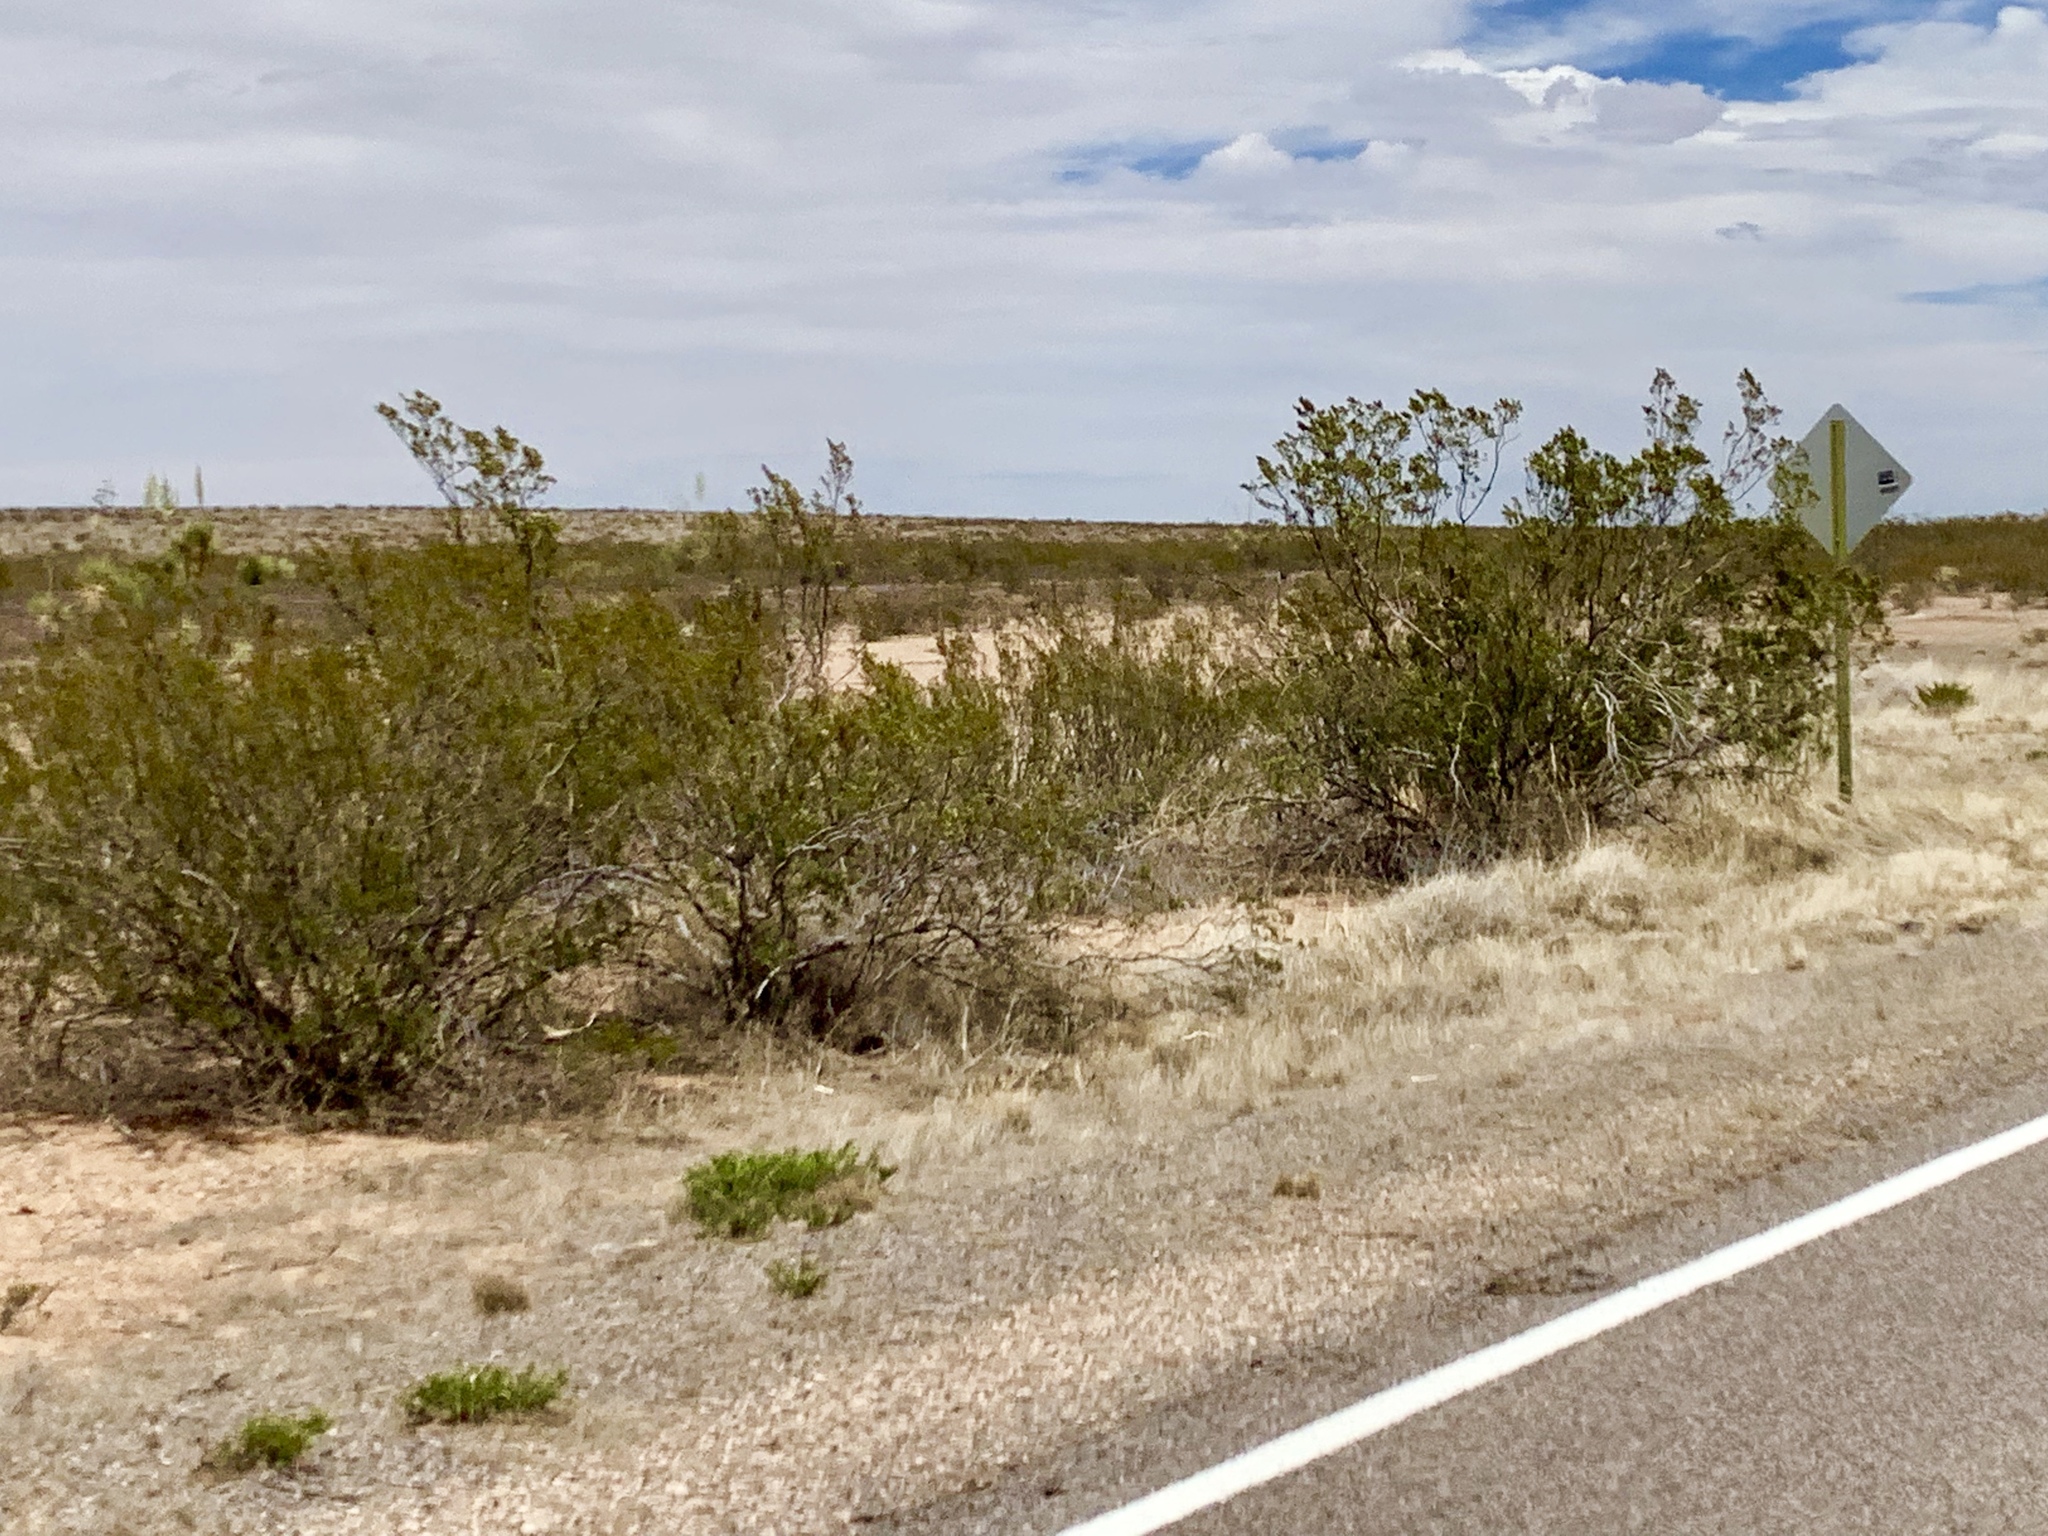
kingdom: Plantae
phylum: Tracheophyta
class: Magnoliopsida
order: Zygophyllales
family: Zygophyllaceae
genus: Larrea
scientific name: Larrea tridentata
